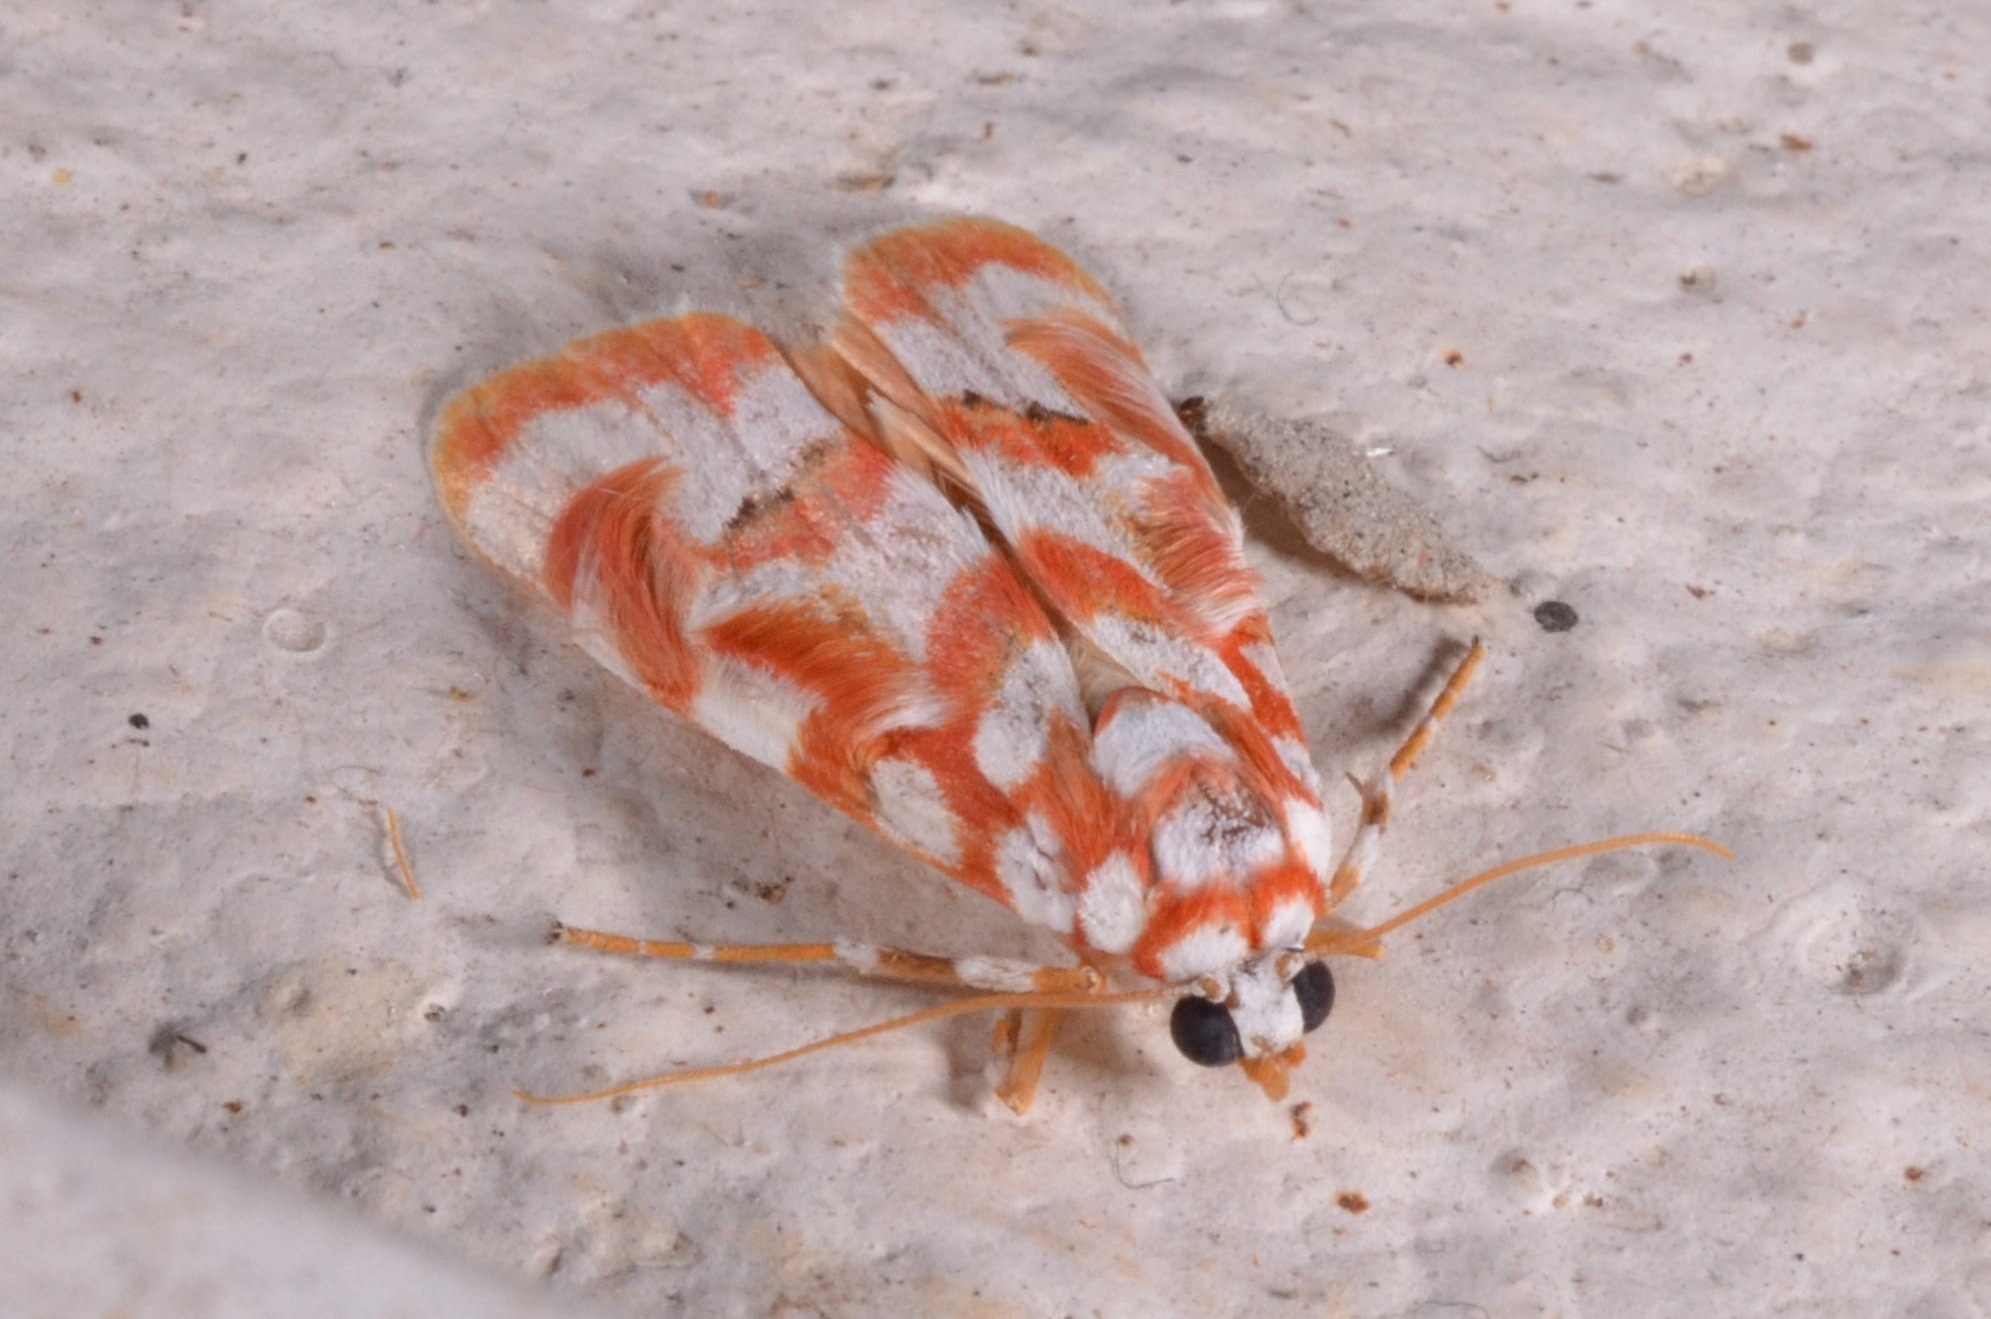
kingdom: Animalia
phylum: Arthropoda
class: Insecta
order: Lepidoptera
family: Erebidae
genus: Cyana
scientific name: Cyana costifimbria
